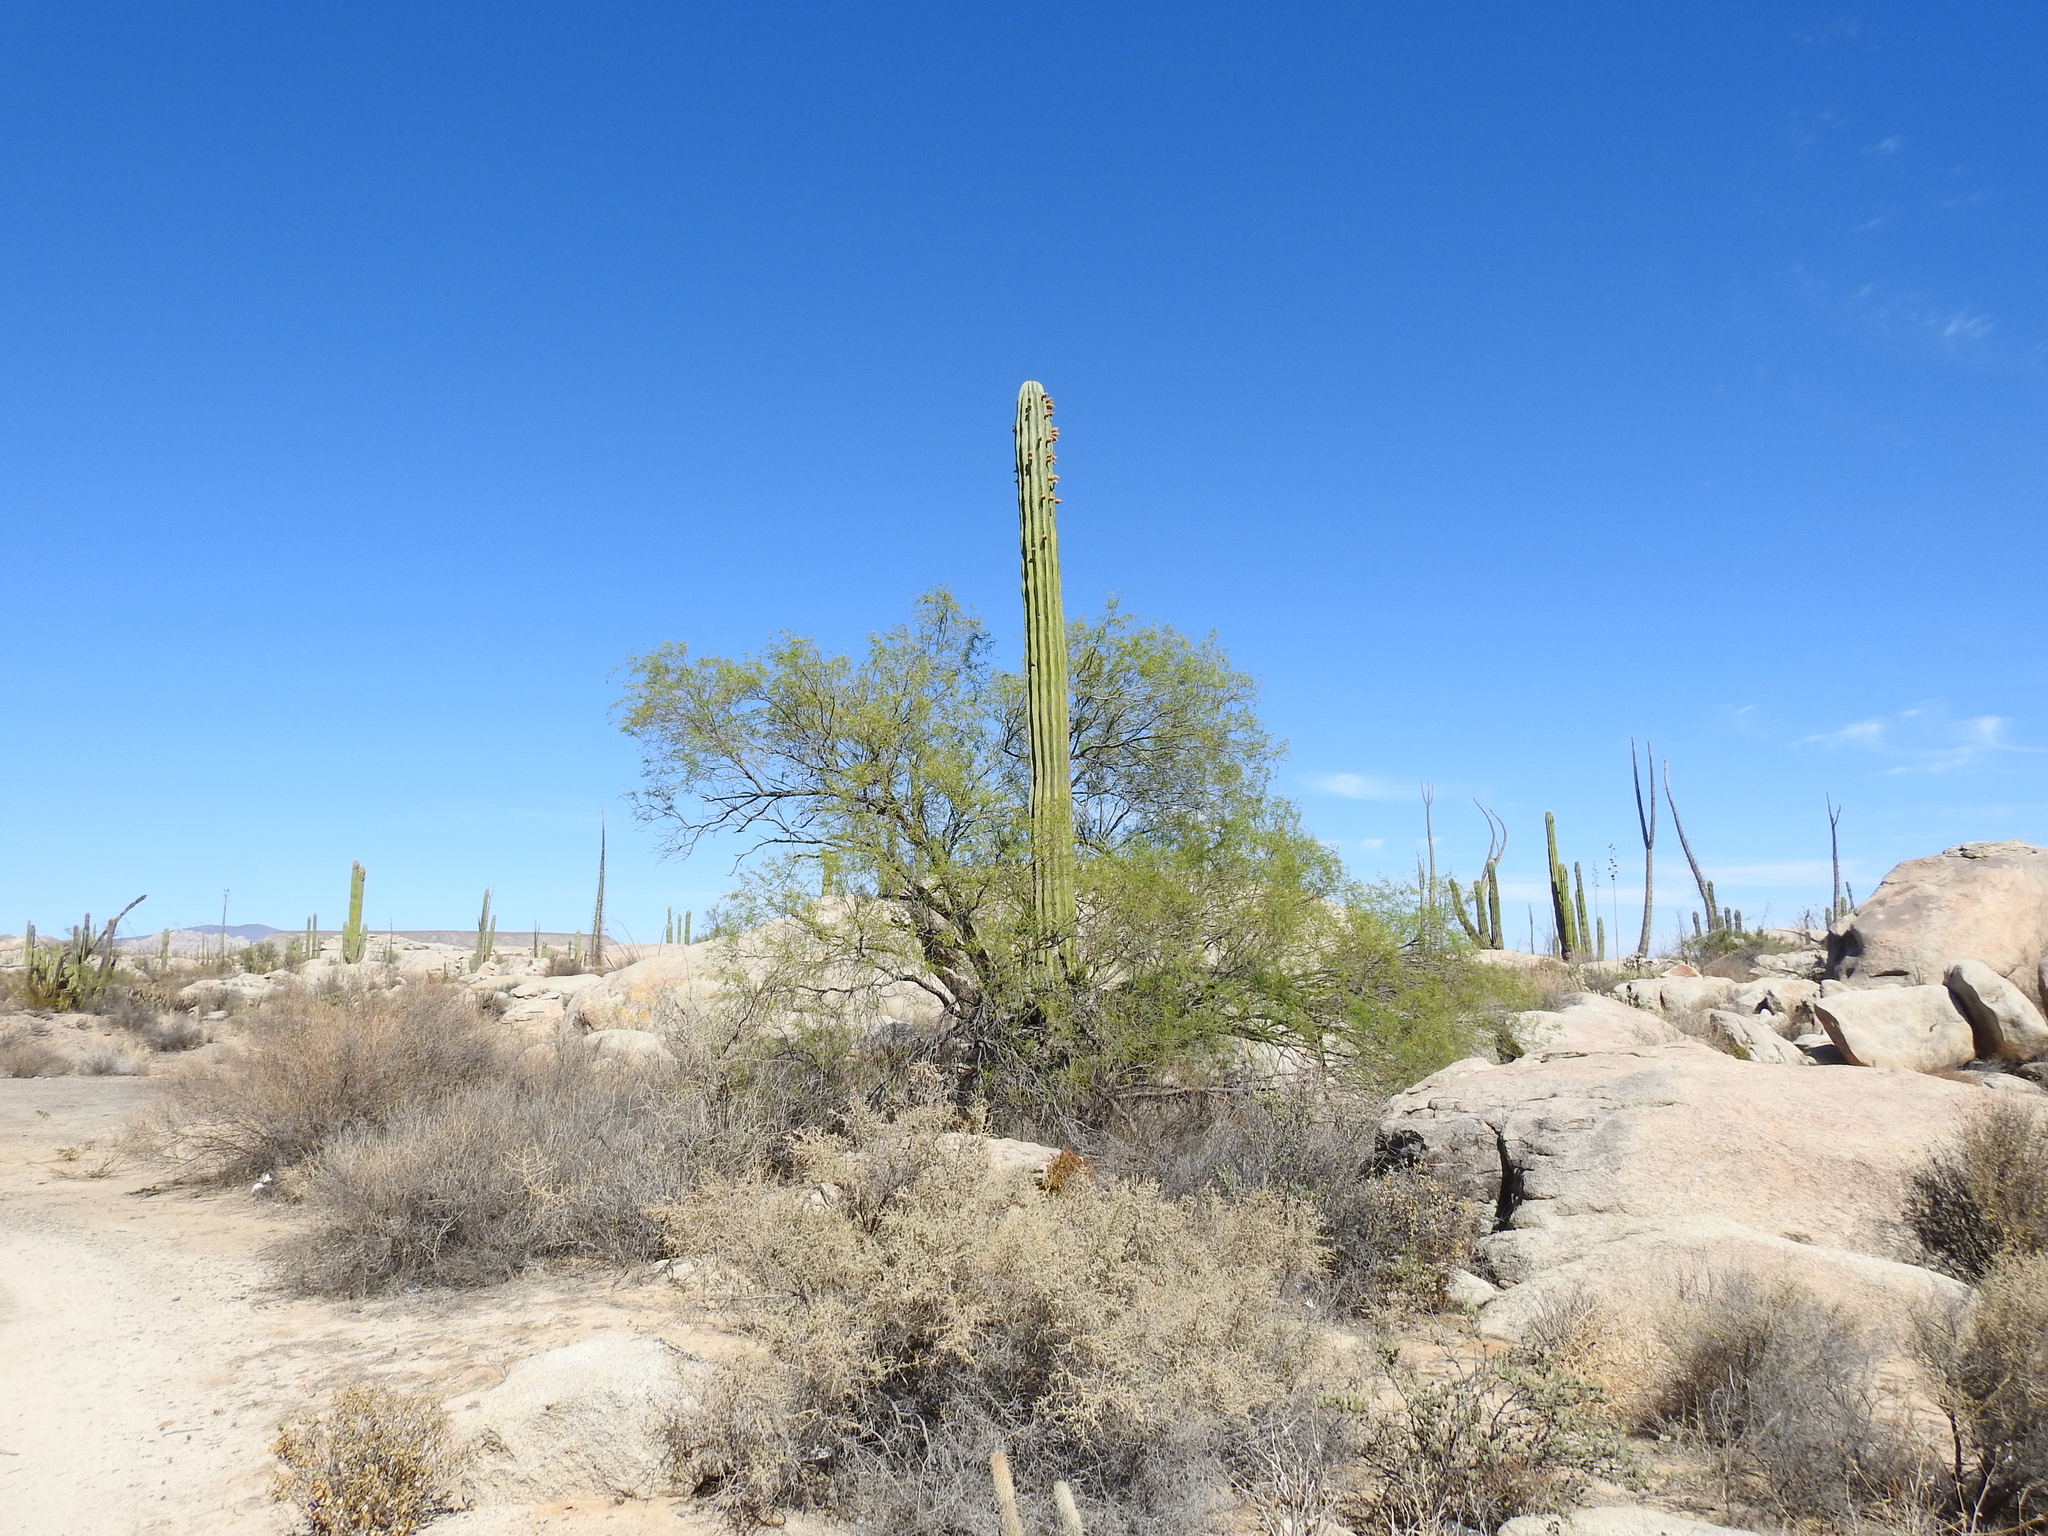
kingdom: Plantae
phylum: Tracheophyta
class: Magnoliopsida
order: Caryophyllales
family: Cactaceae
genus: Pachycereus
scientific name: Pachycereus pringlei
